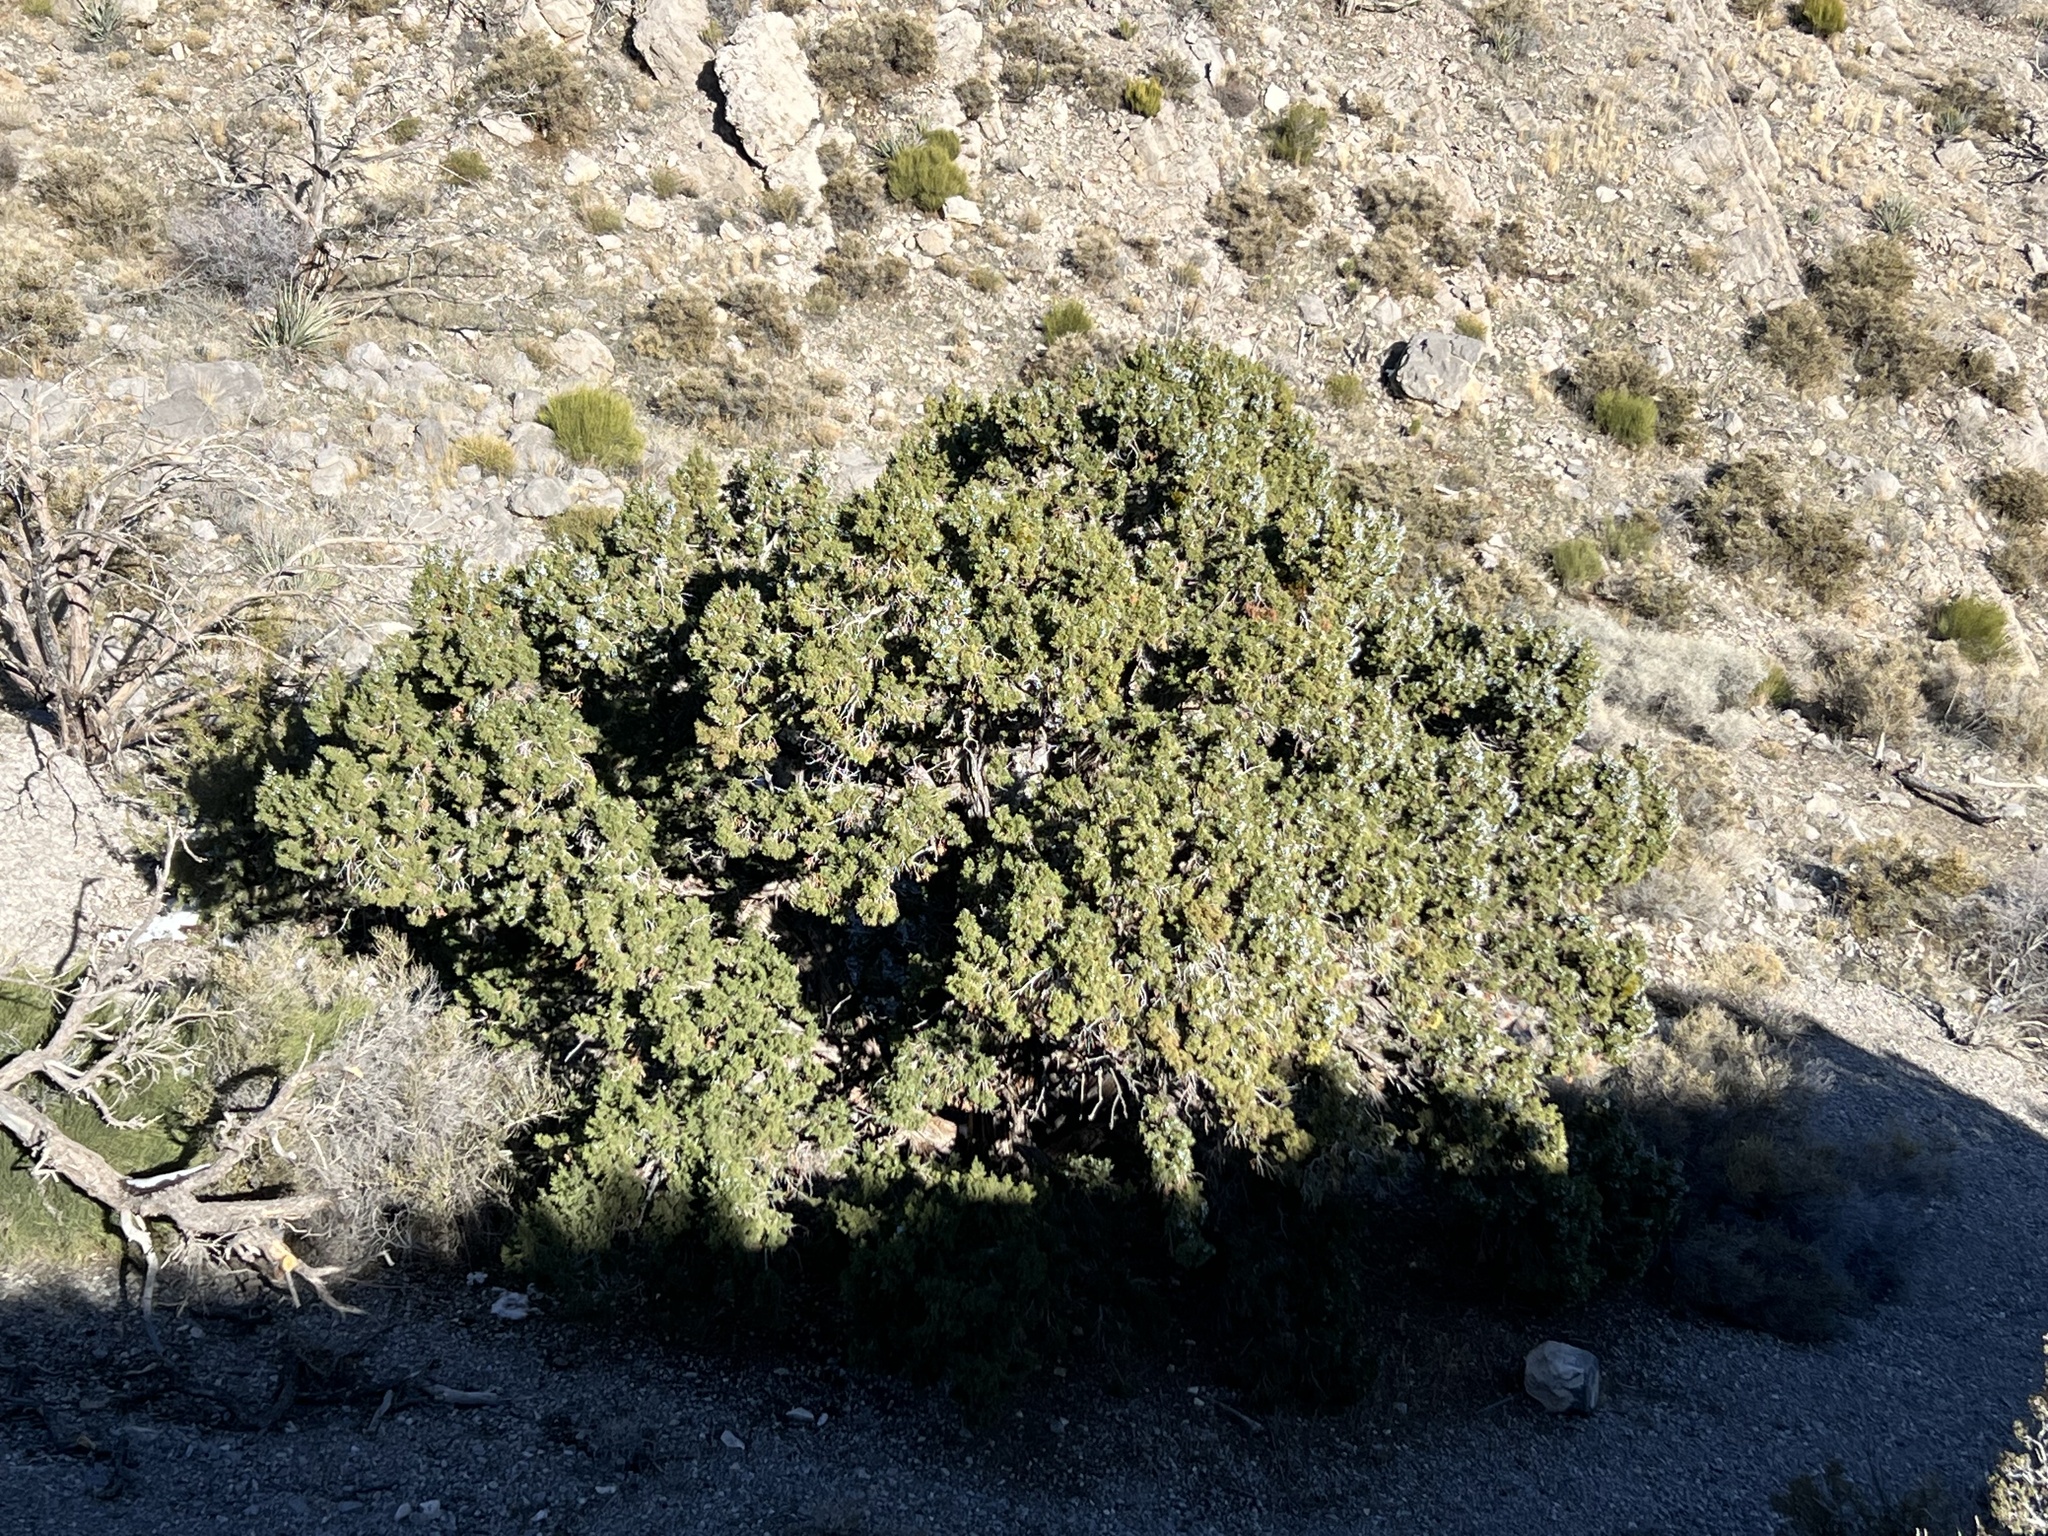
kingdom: Plantae
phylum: Tracheophyta
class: Pinopsida
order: Pinales
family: Cupressaceae
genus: Juniperus
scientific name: Juniperus osteosperma
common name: Utah juniper
